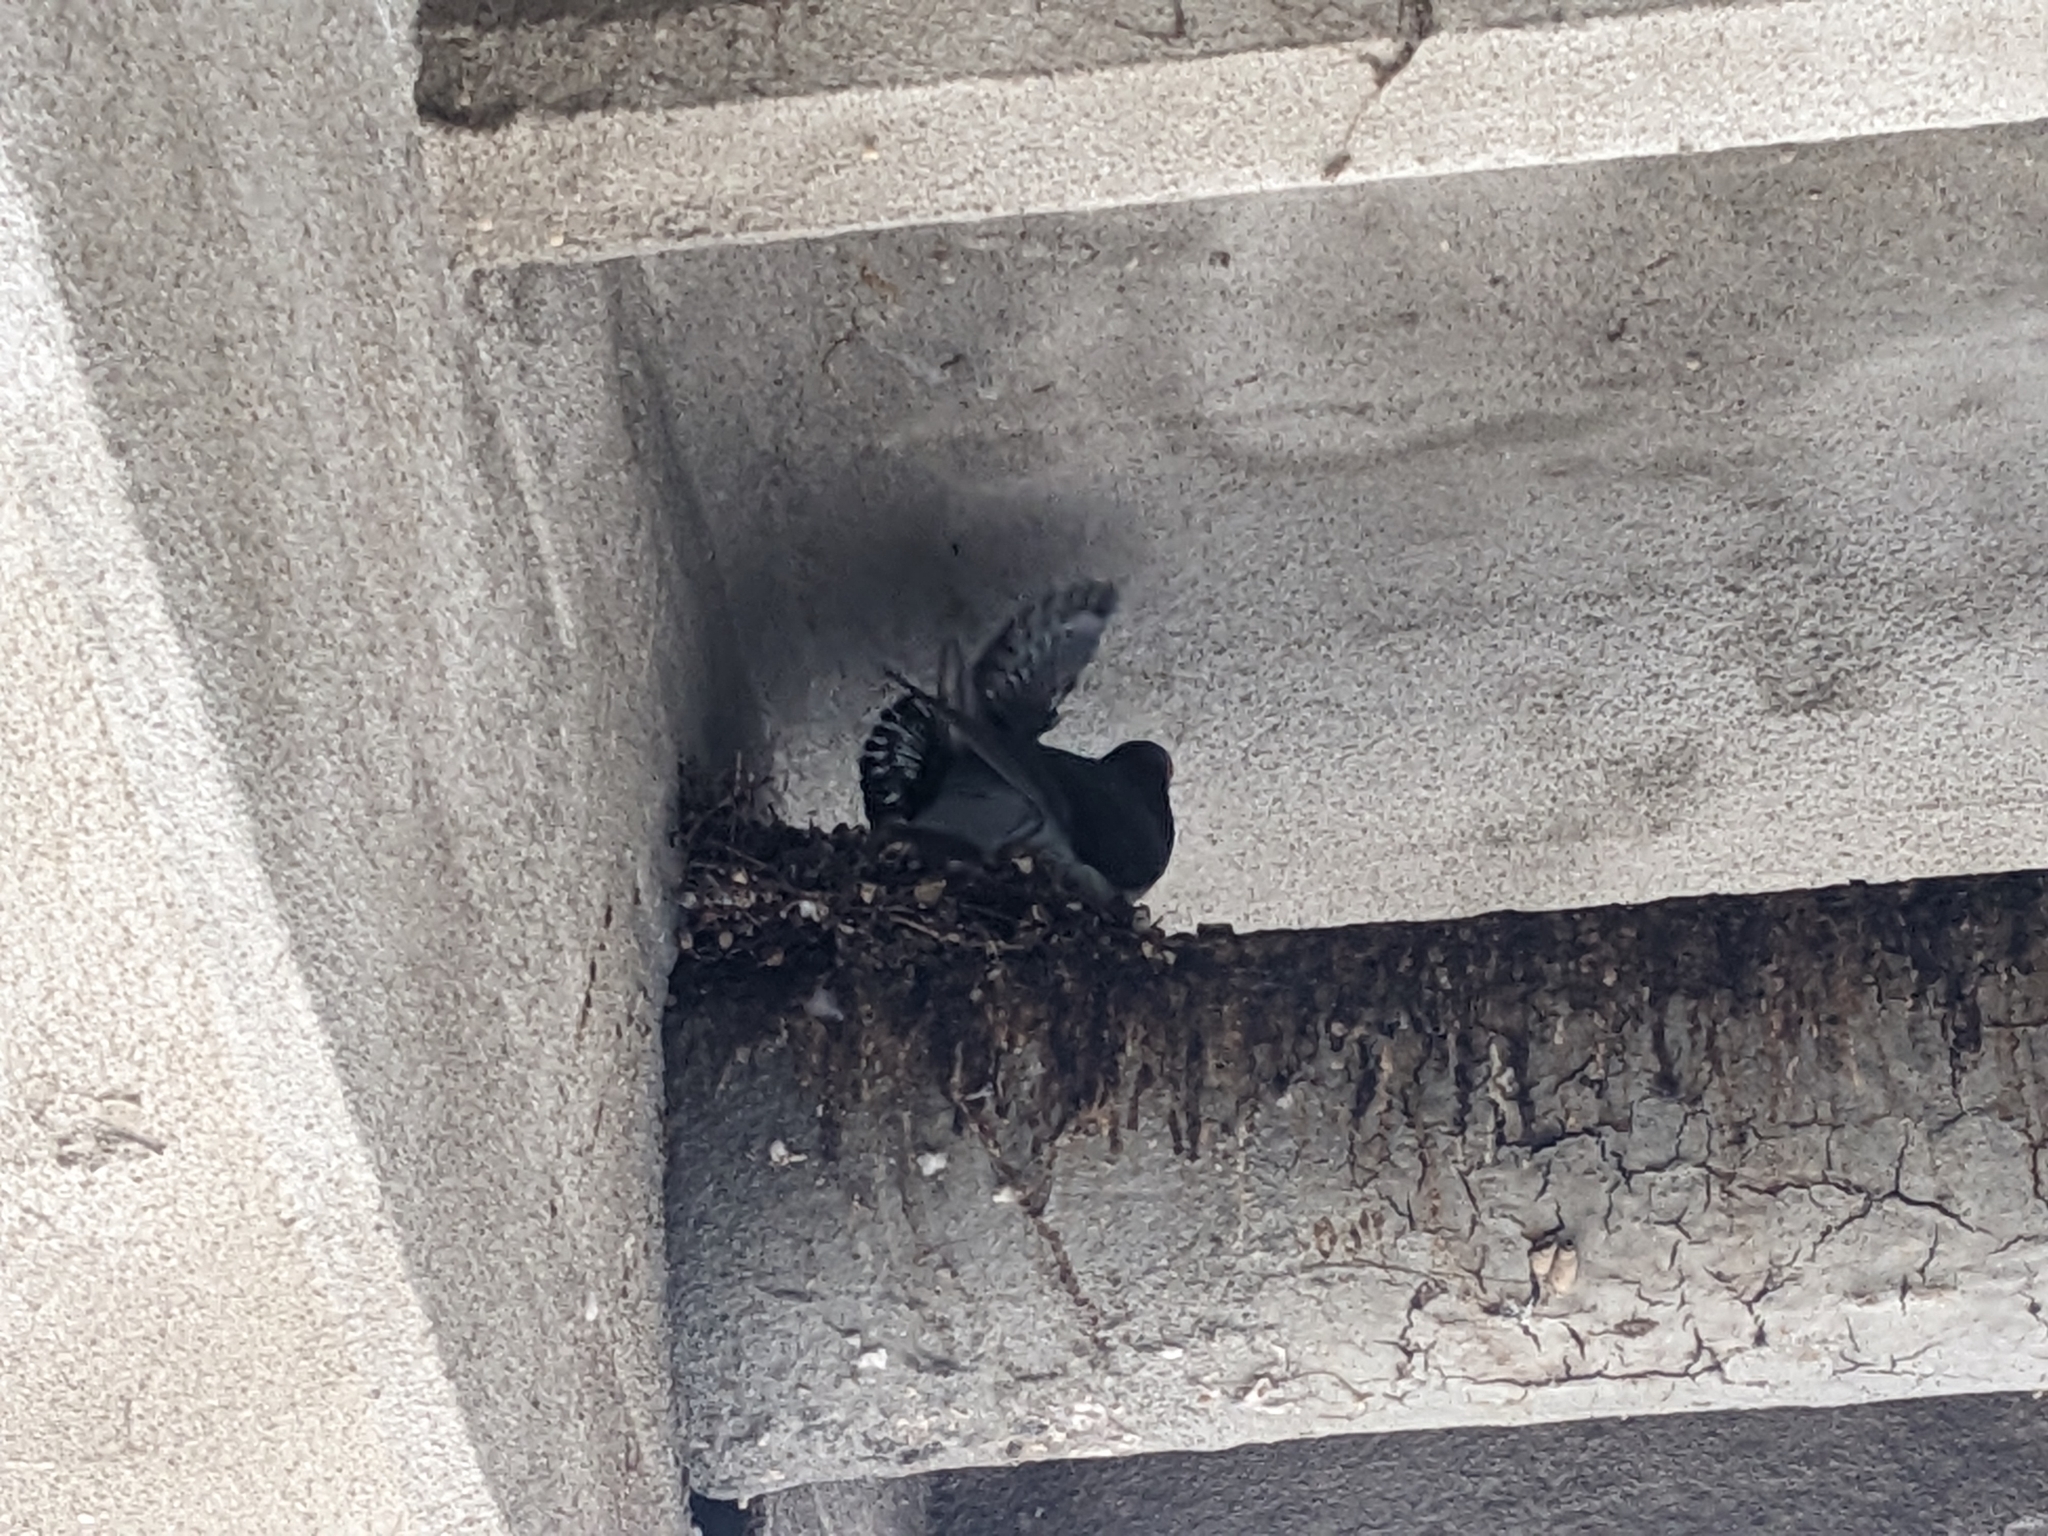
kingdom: Animalia
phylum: Chordata
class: Aves
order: Columbiformes
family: Columbidae
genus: Columba
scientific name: Columba livia
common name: Rock pigeon
